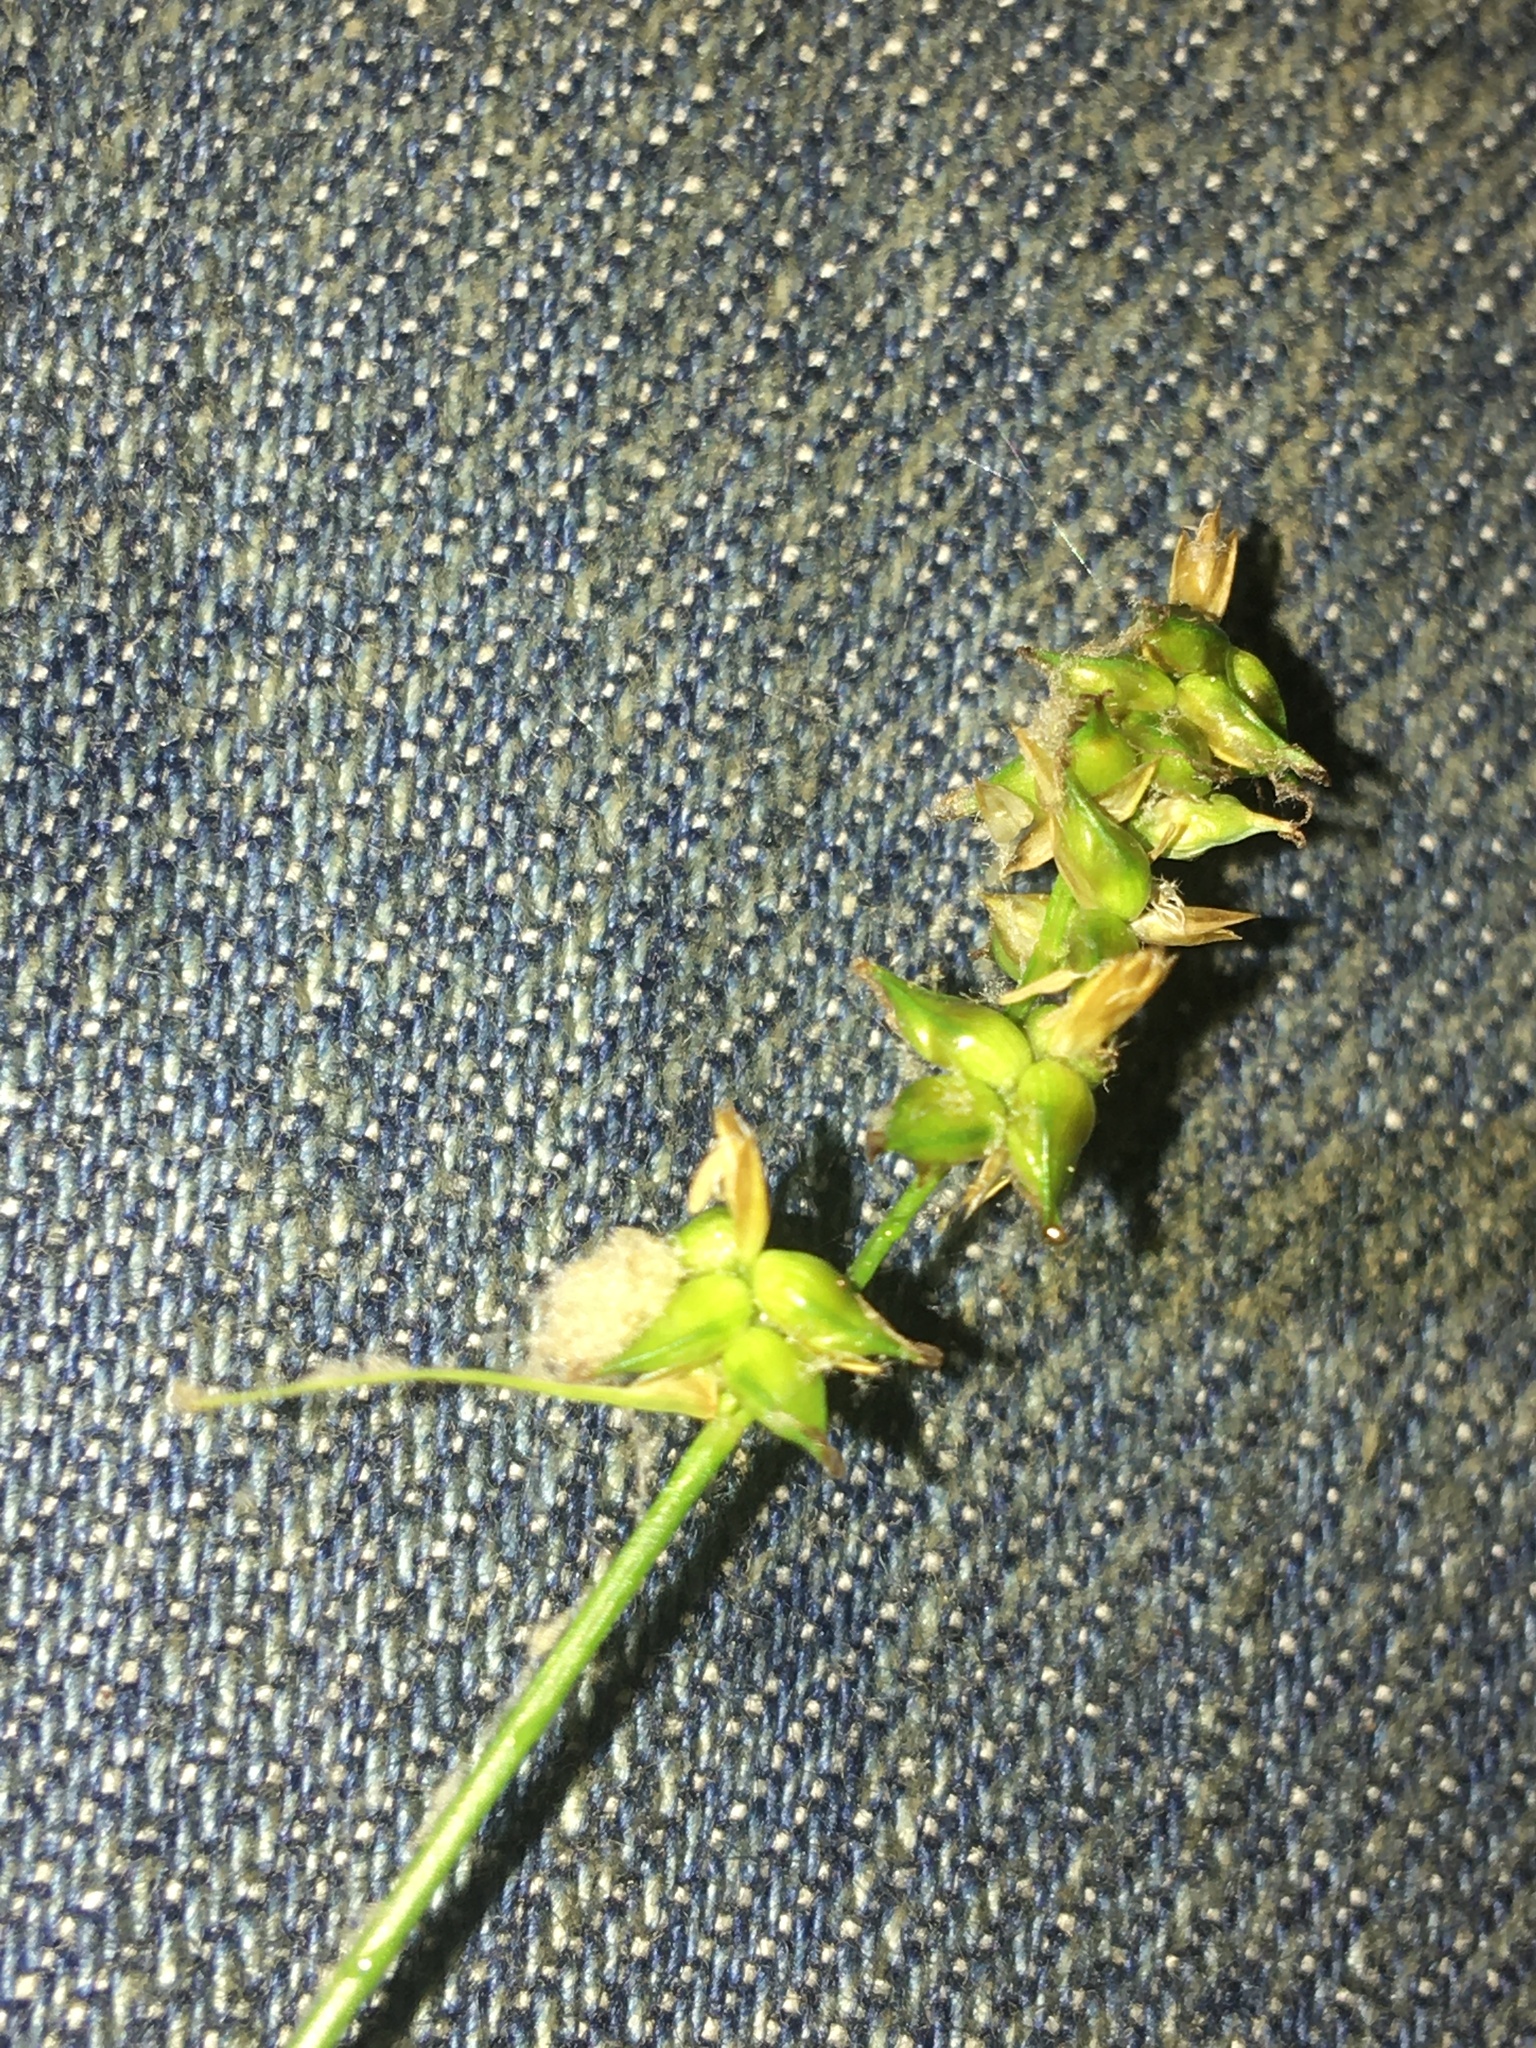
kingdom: Plantae
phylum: Tracheophyta
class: Liliopsida
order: Poales
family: Cyperaceae
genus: Carex
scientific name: Carex retroflexa
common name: Reflexed sedge
